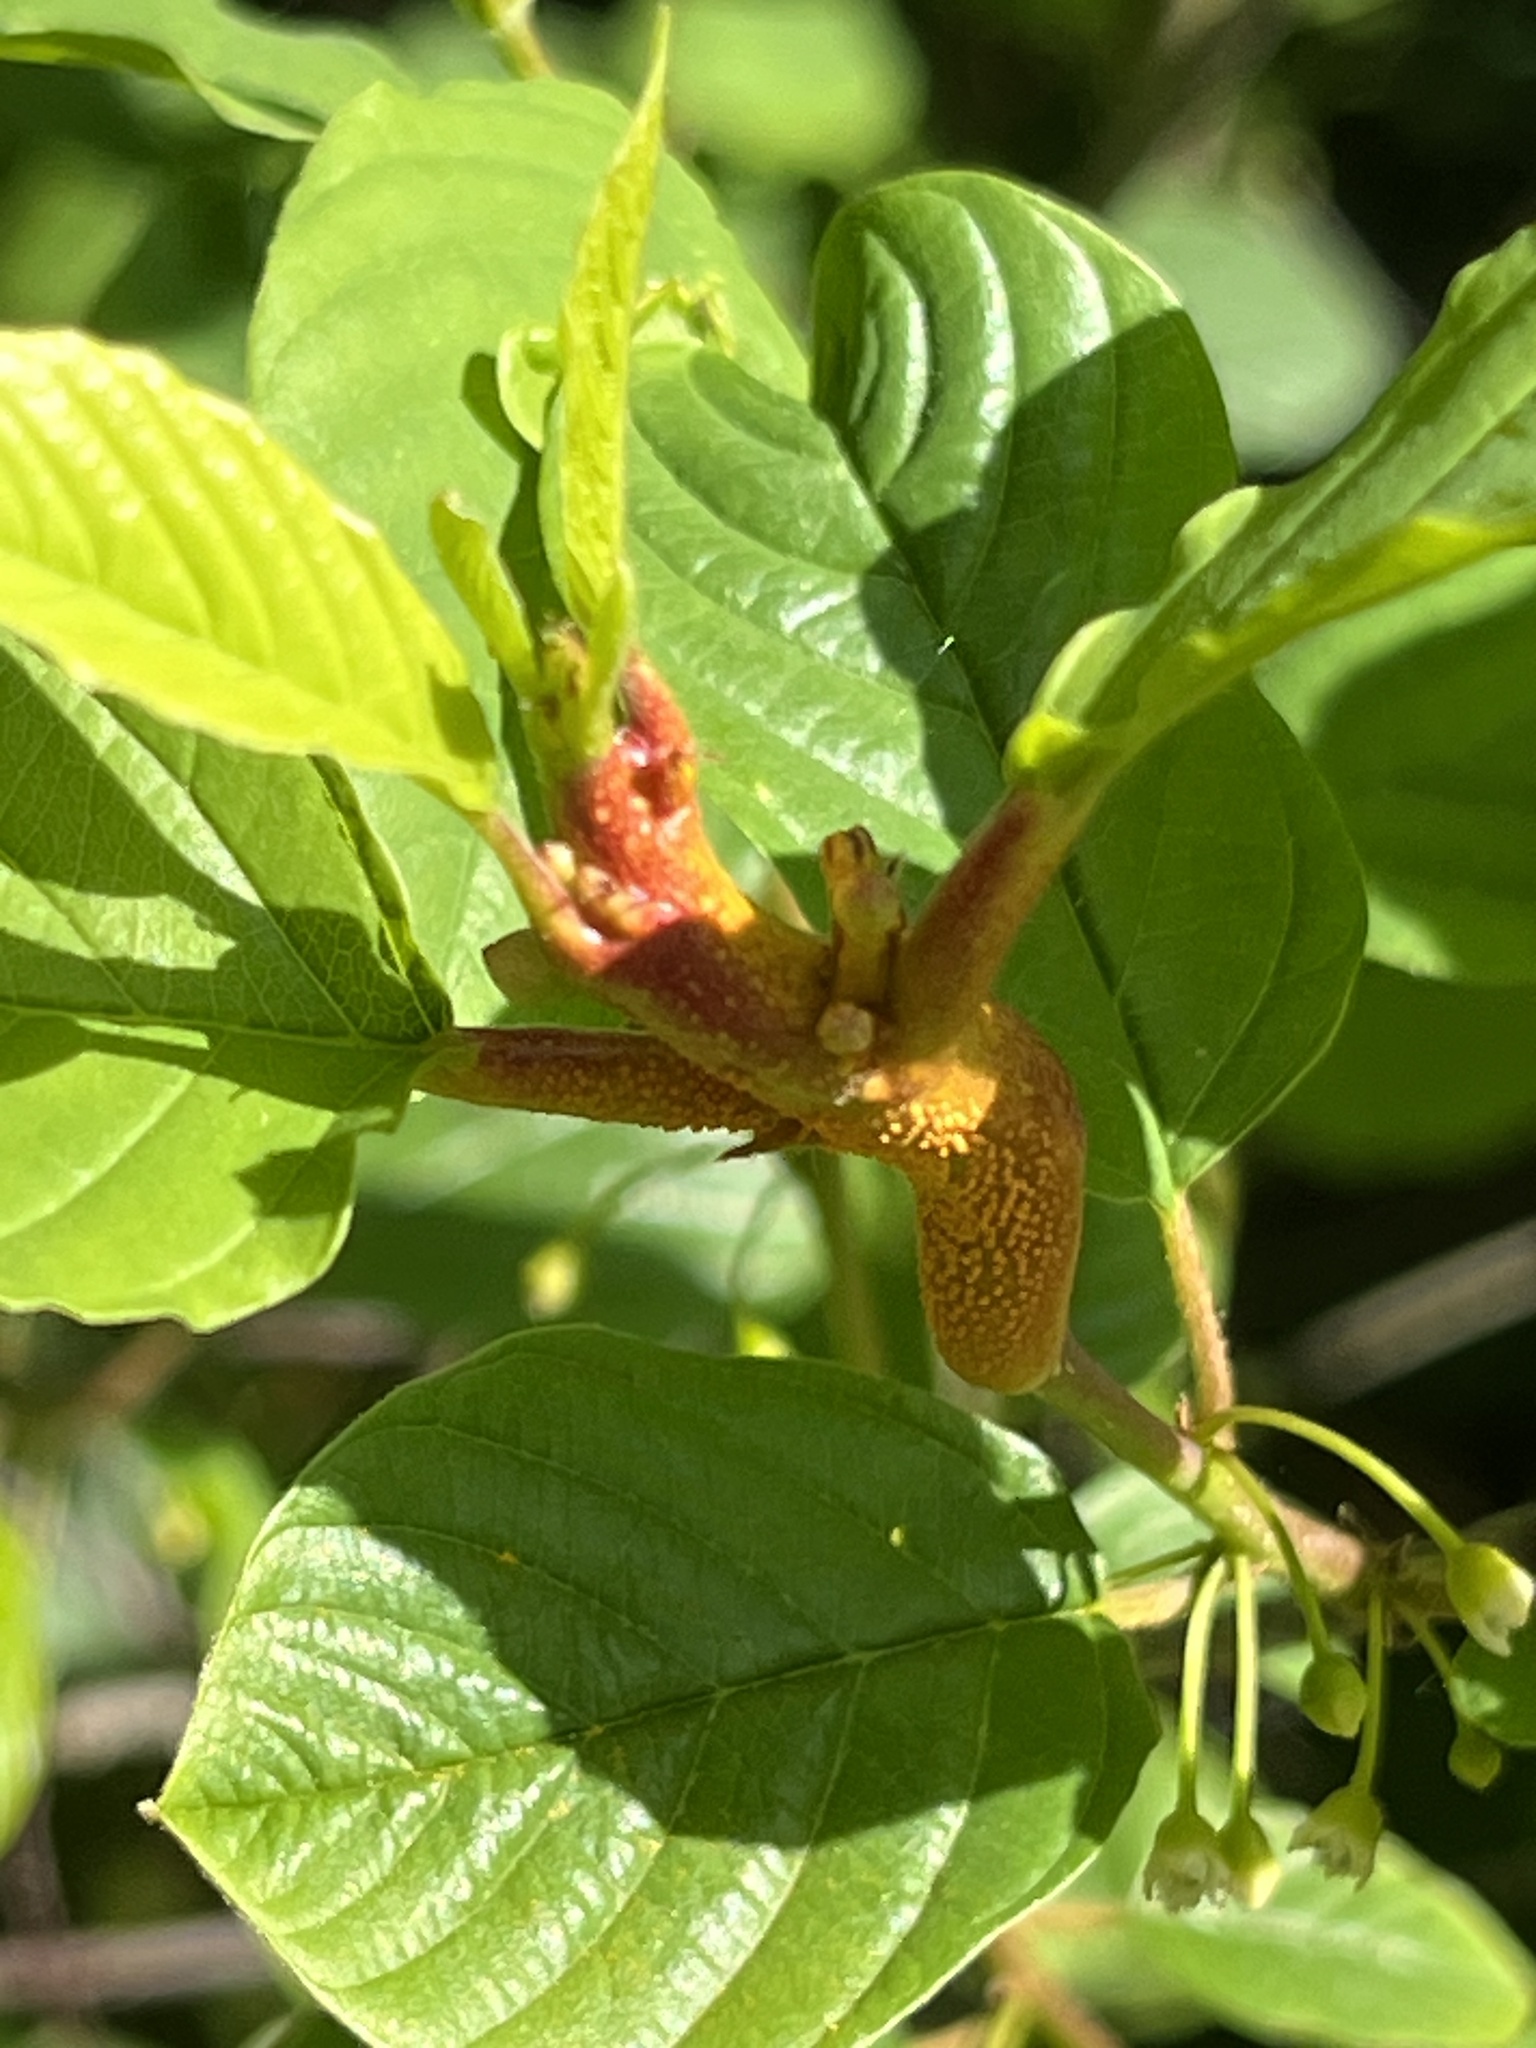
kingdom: Fungi
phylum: Basidiomycota
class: Pucciniomycetes
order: Pucciniales
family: Pucciniaceae
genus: Puccinia
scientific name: Puccinia coronata
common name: Crown rust
